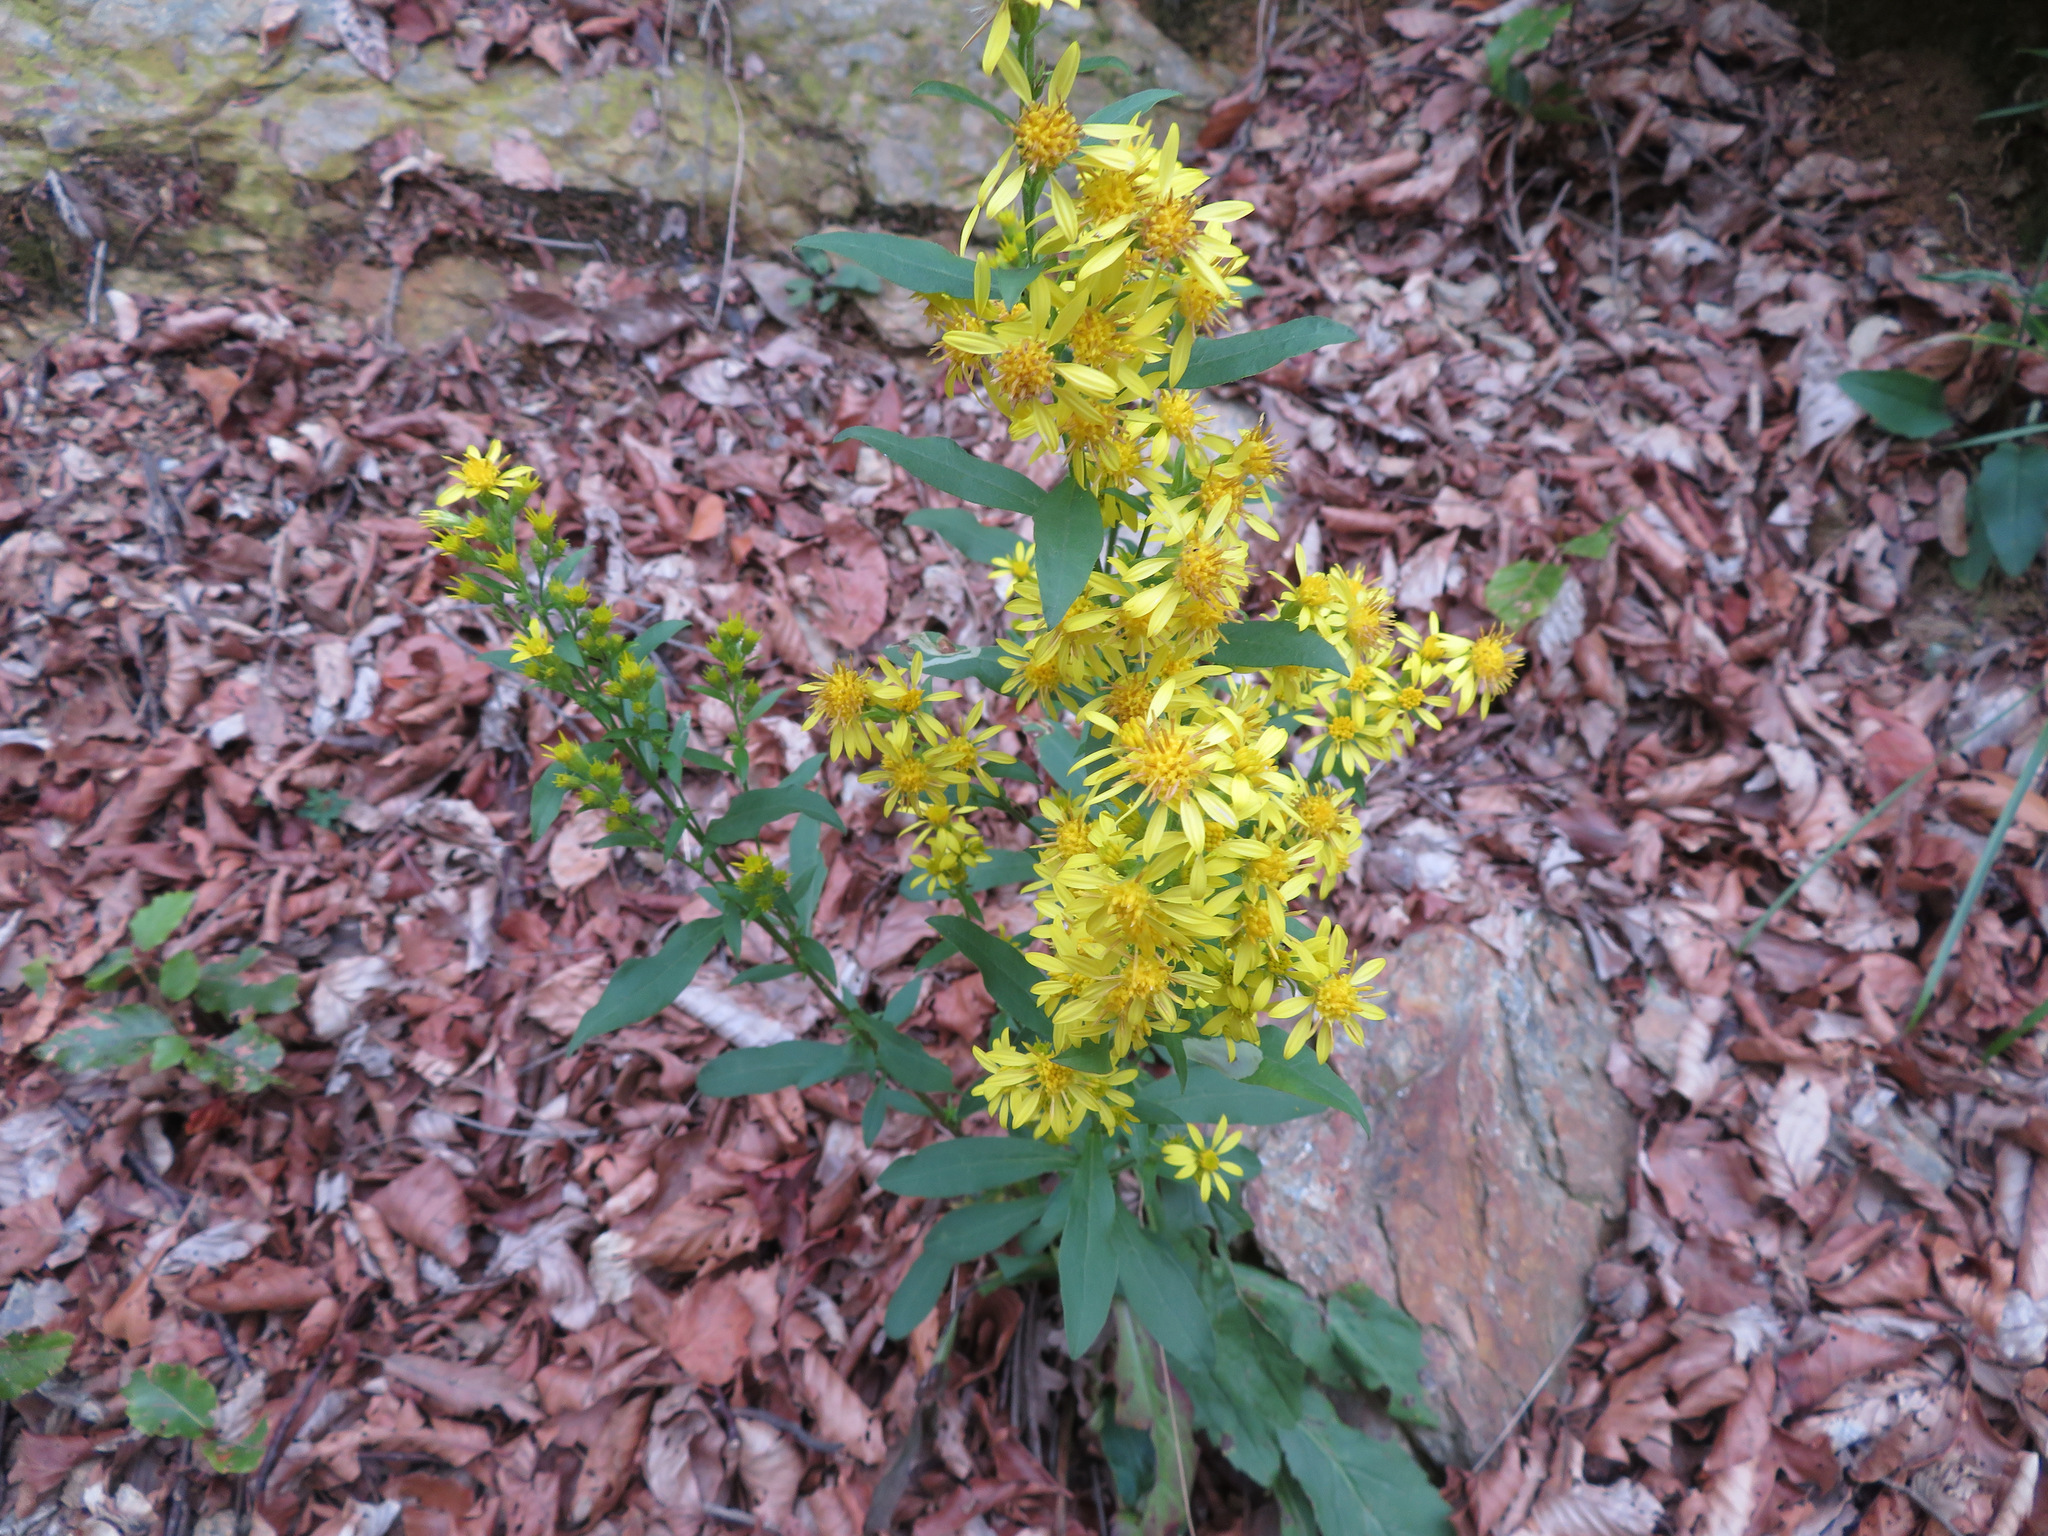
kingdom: Plantae
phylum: Tracheophyta
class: Magnoliopsida
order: Asterales
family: Asteraceae
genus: Solidago
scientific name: Solidago virgaurea
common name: Goldenrod
